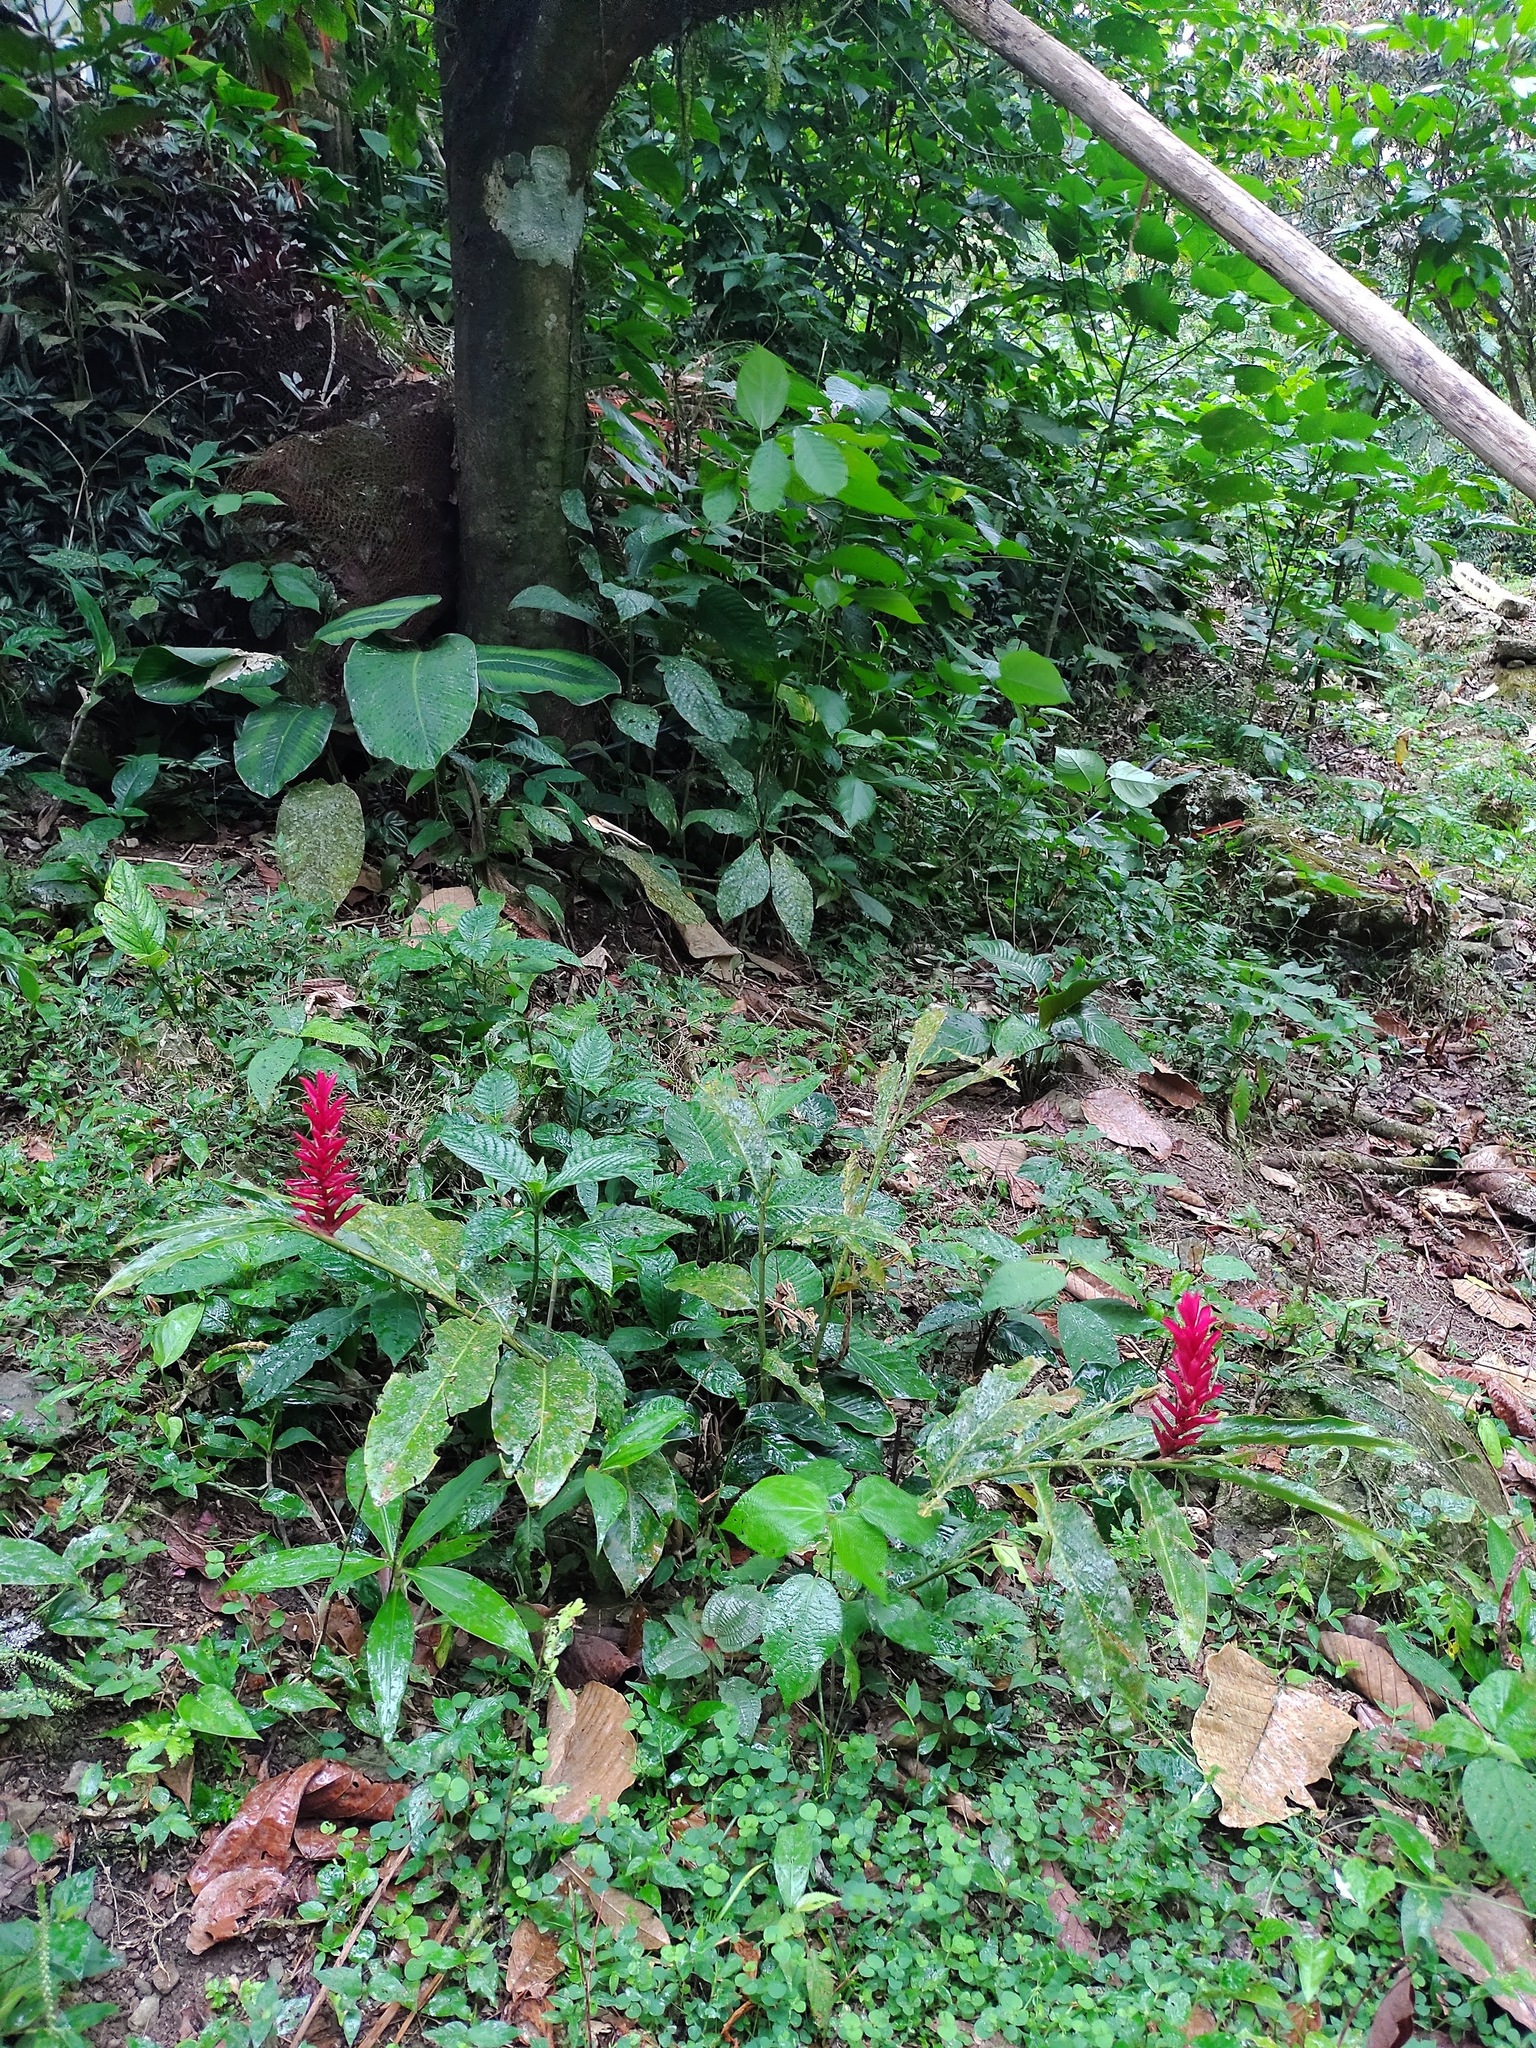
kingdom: Plantae
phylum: Tracheophyta
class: Liliopsida
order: Zingiberales
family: Zingiberaceae
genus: Alpinia
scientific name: Alpinia purpurata
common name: Red ginger
